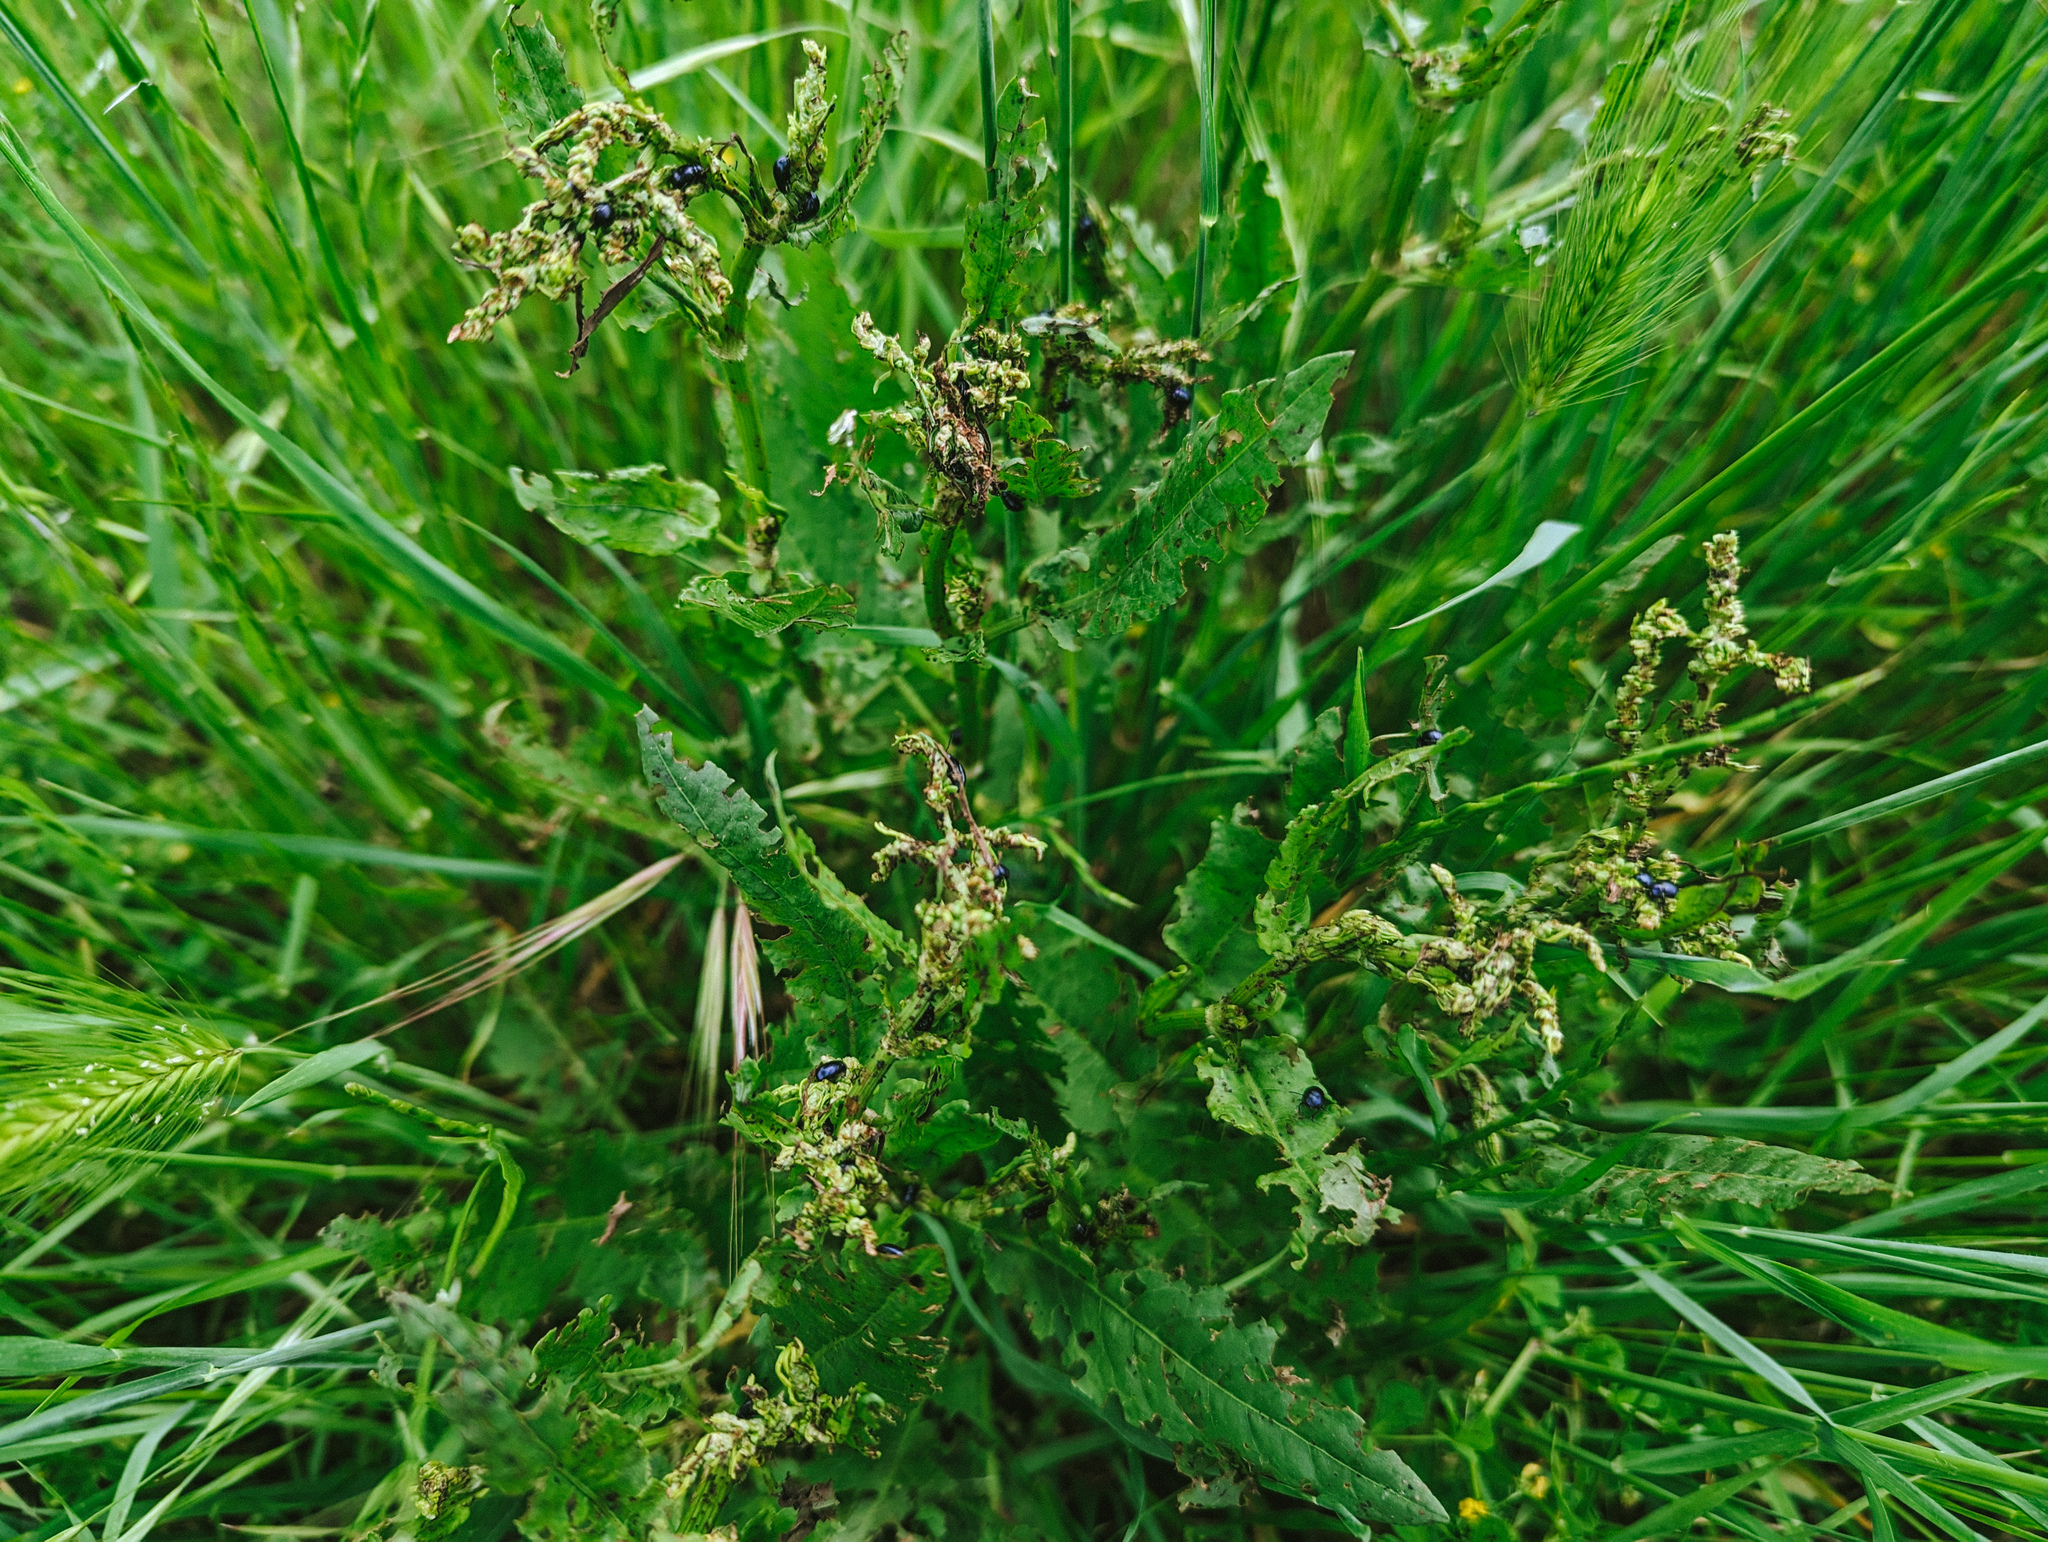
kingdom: Animalia
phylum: Arthropoda
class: Insecta
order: Coleoptera
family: Chrysomelidae
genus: Gastrophysa
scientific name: Gastrophysa janthina
